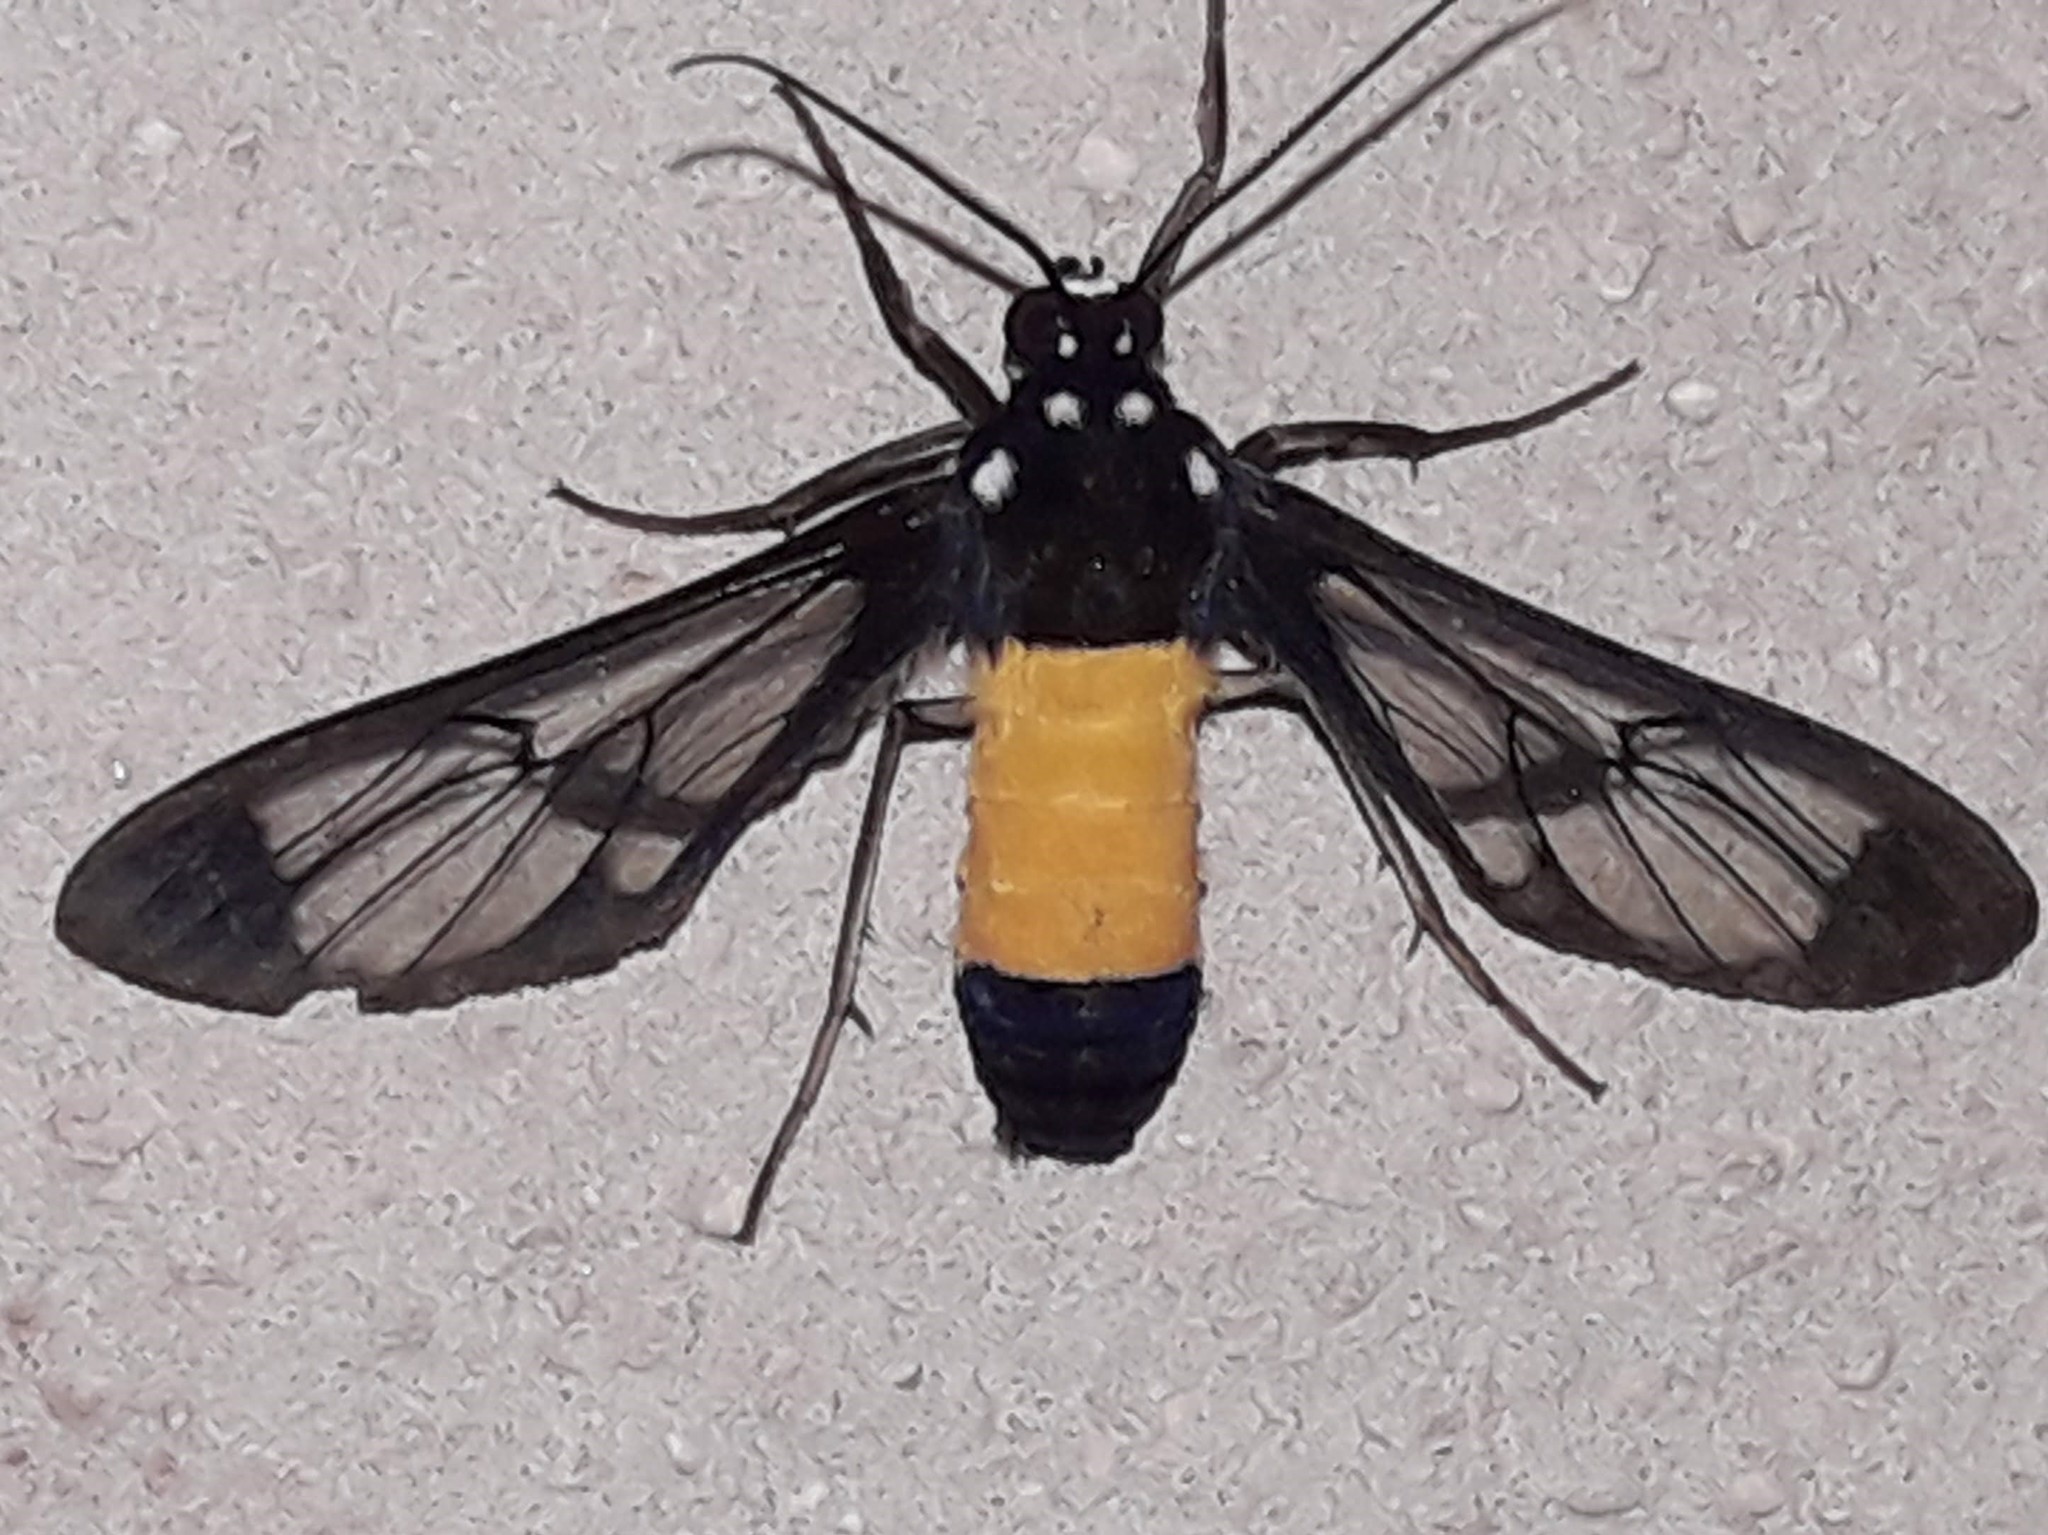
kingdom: Animalia
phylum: Arthropoda
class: Insecta
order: Lepidoptera
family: Erebidae
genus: Cosmosoma
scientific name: Cosmosoma galatea
